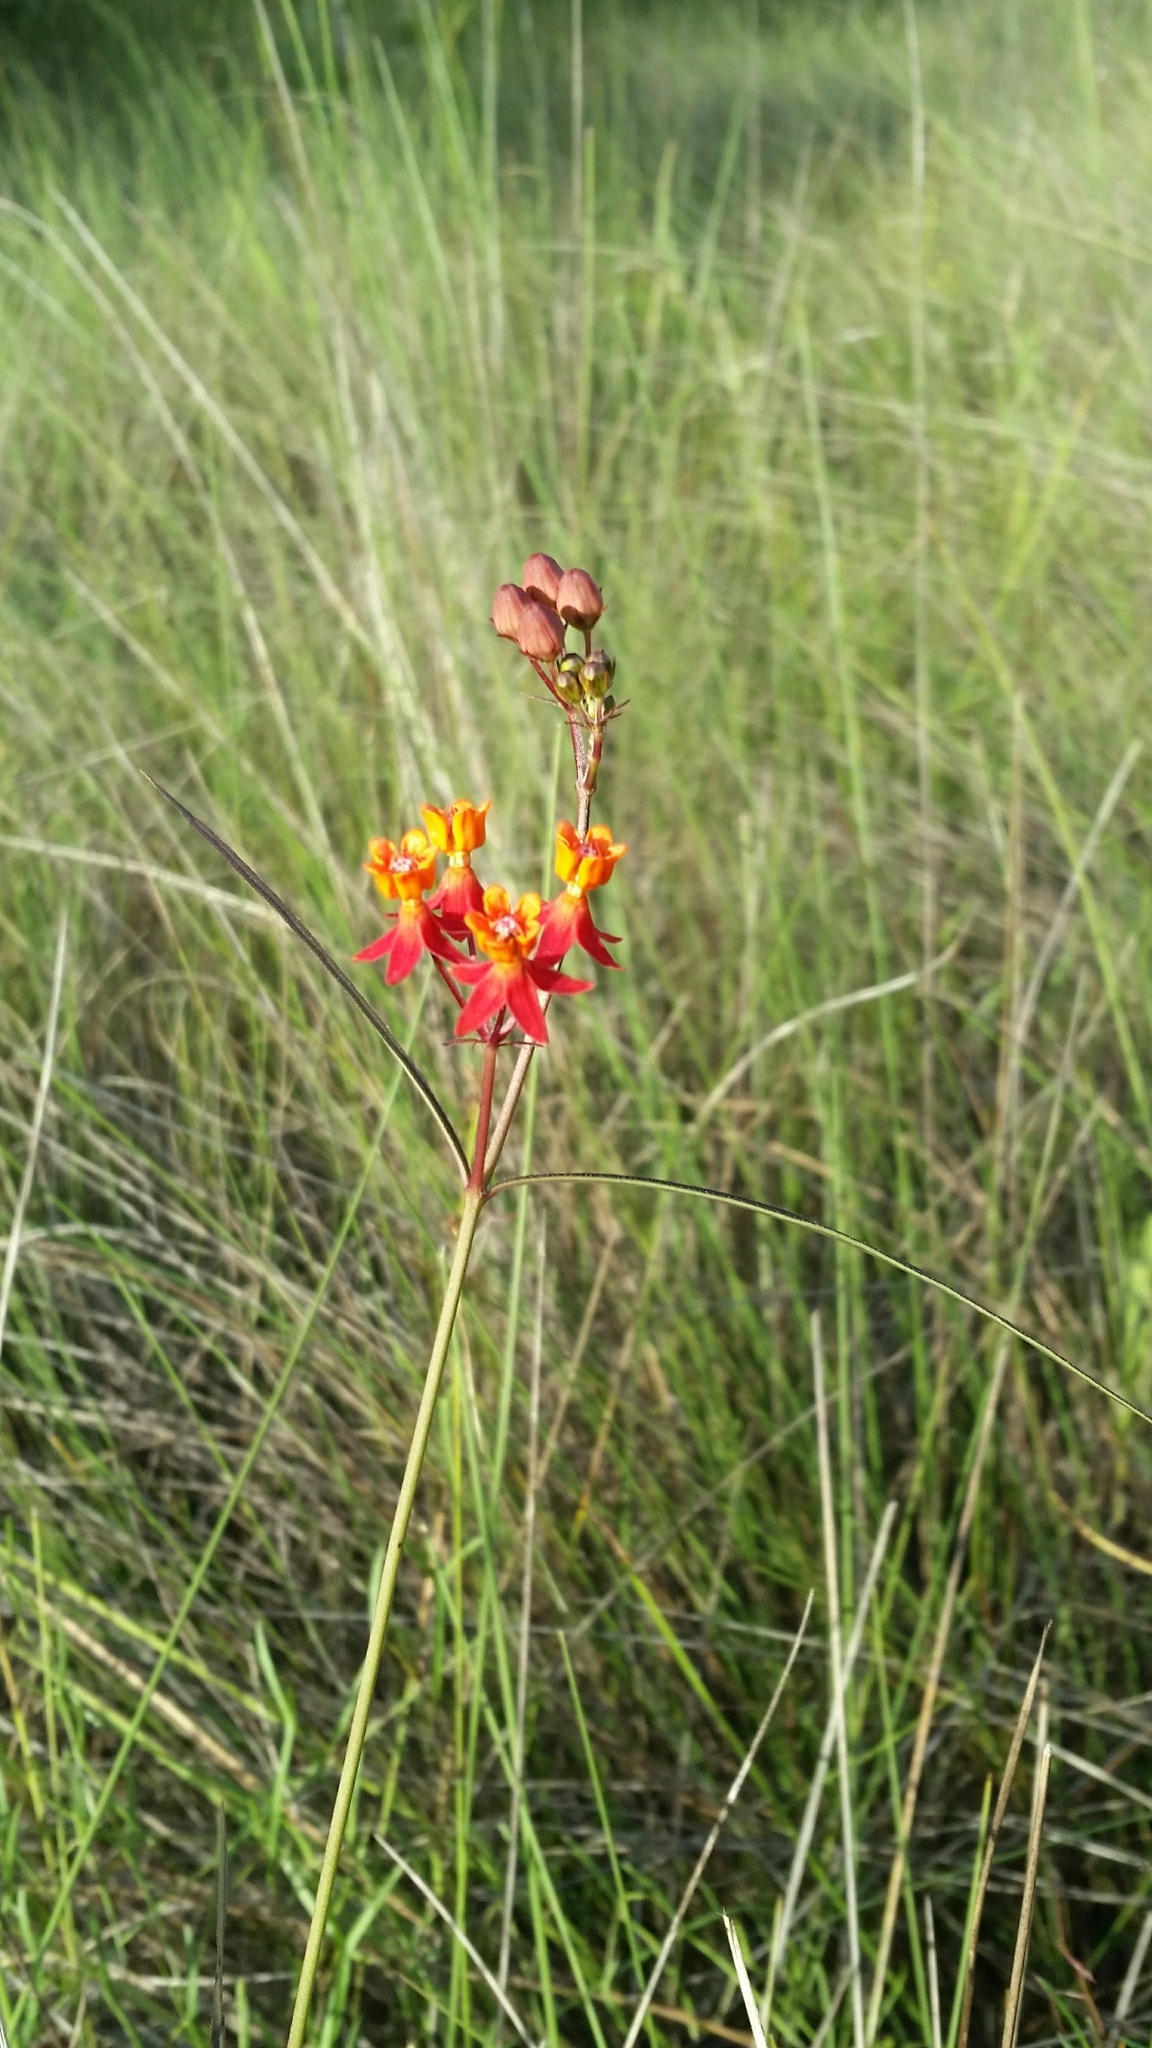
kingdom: Plantae
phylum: Tracheophyta
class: Magnoliopsida
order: Gentianales
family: Apocynaceae
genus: Asclepias
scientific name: Asclepias lanceolata
